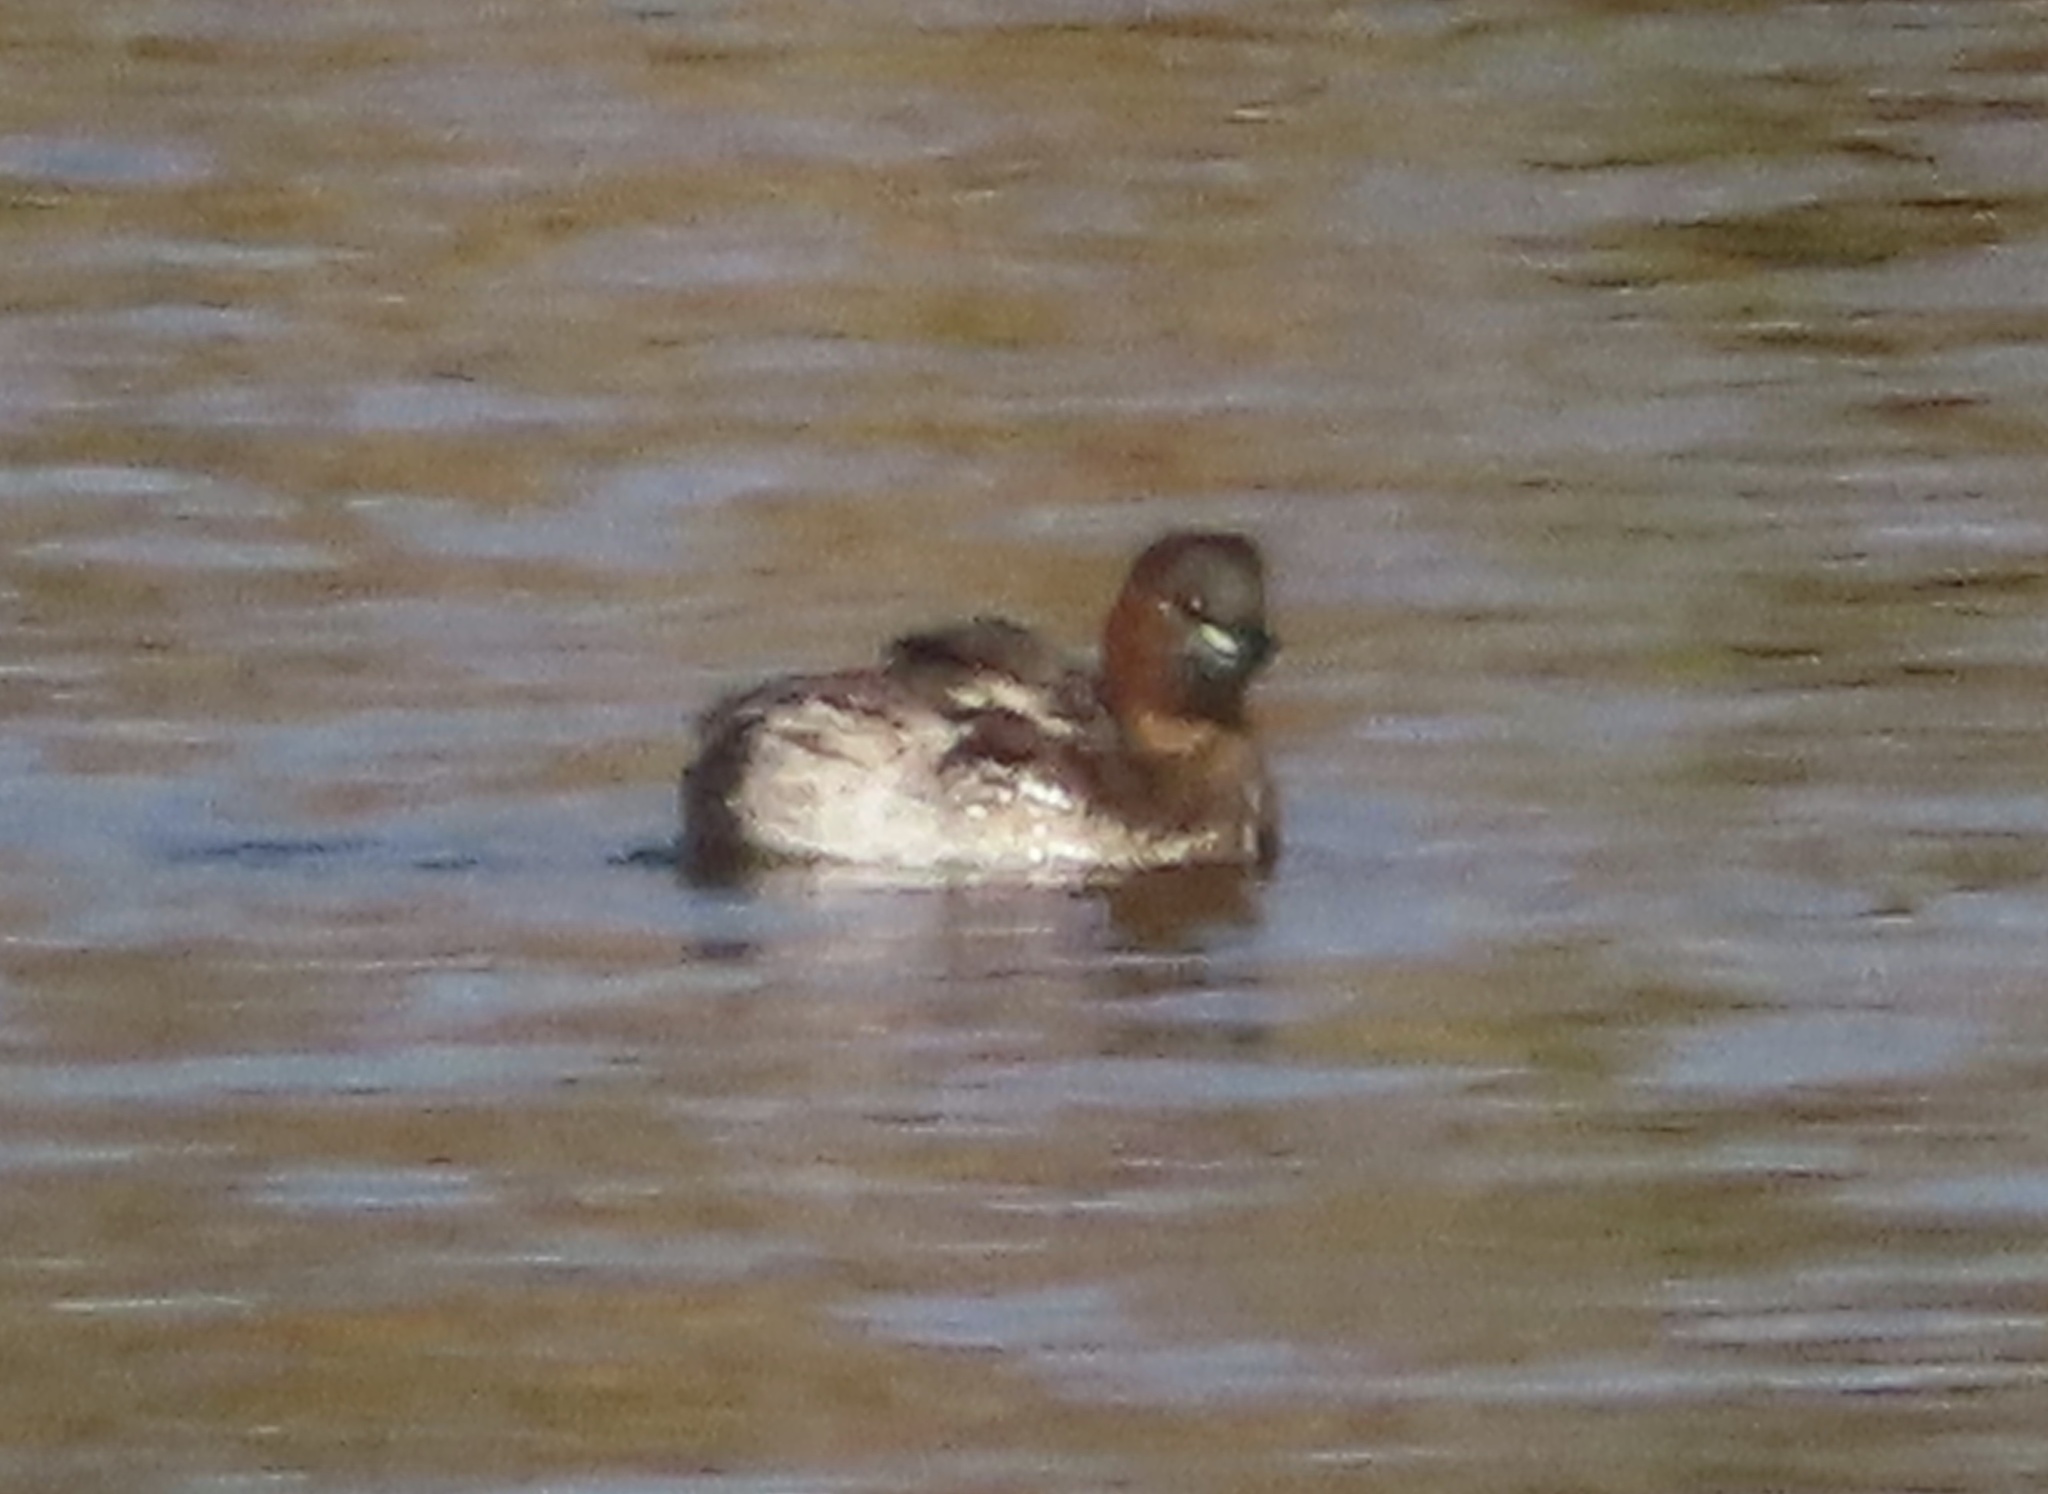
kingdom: Animalia
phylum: Chordata
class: Aves
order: Podicipediformes
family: Podicipedidae
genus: Tachybaptus
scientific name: Tachybaptus ruficollis
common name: Little grebe
